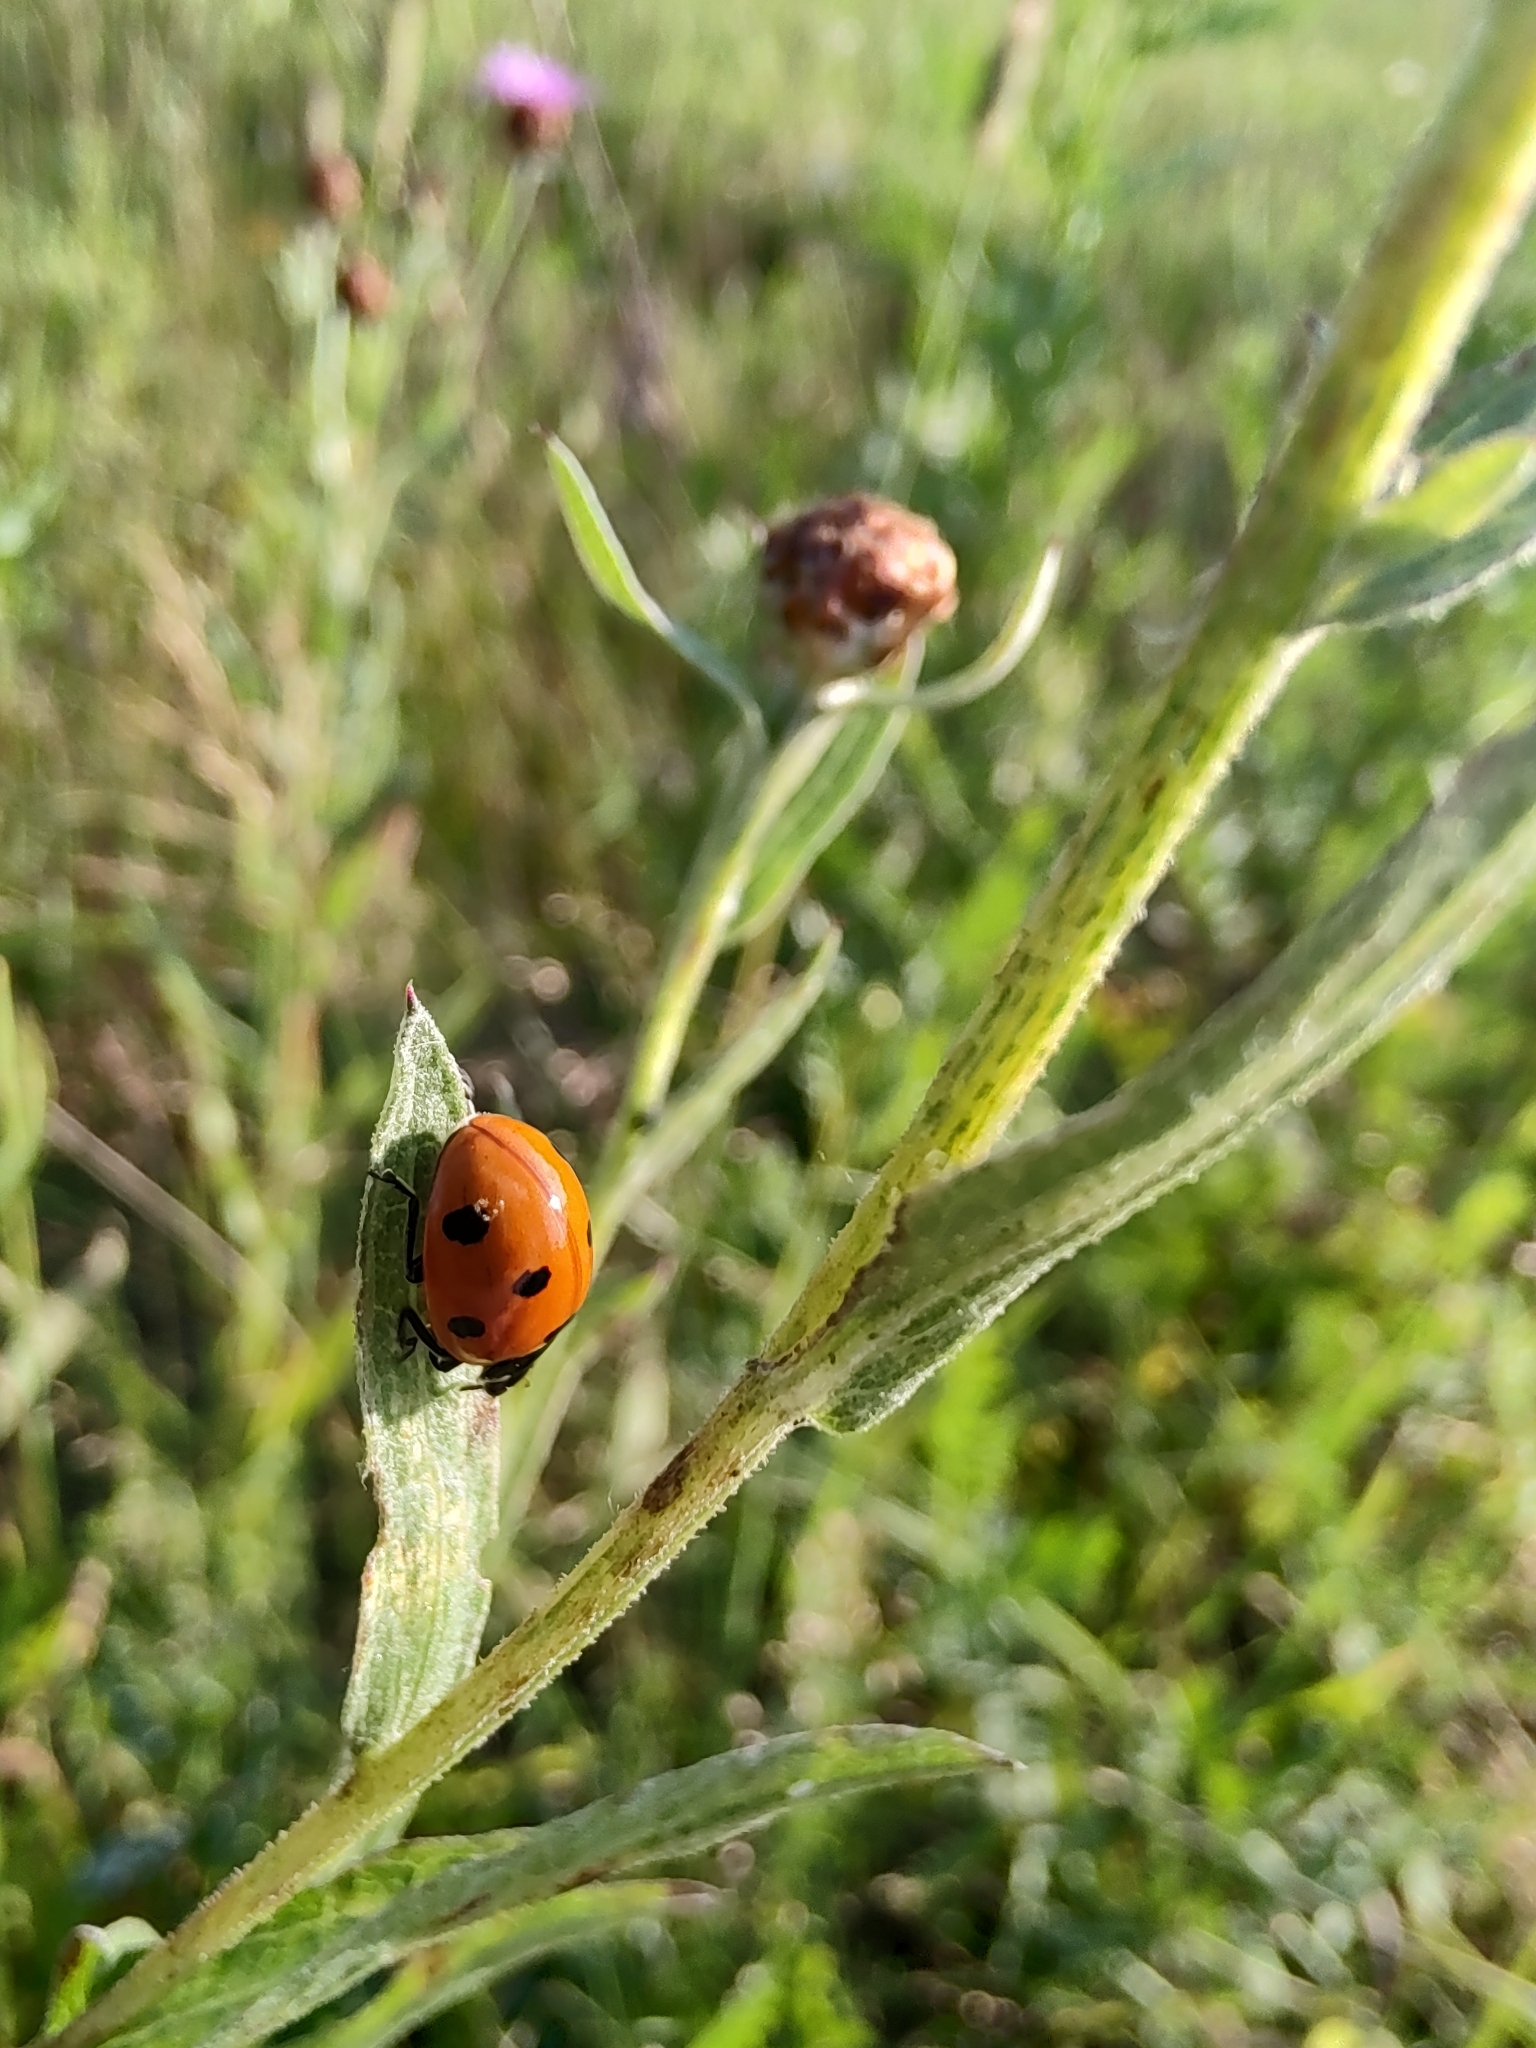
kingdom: Animalia
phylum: Arthropoda
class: Insecta
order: Coleoptera
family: Coccinellidae
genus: Coccinella
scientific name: Coccinella septempunctata
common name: Sevenspotted lady beetle
